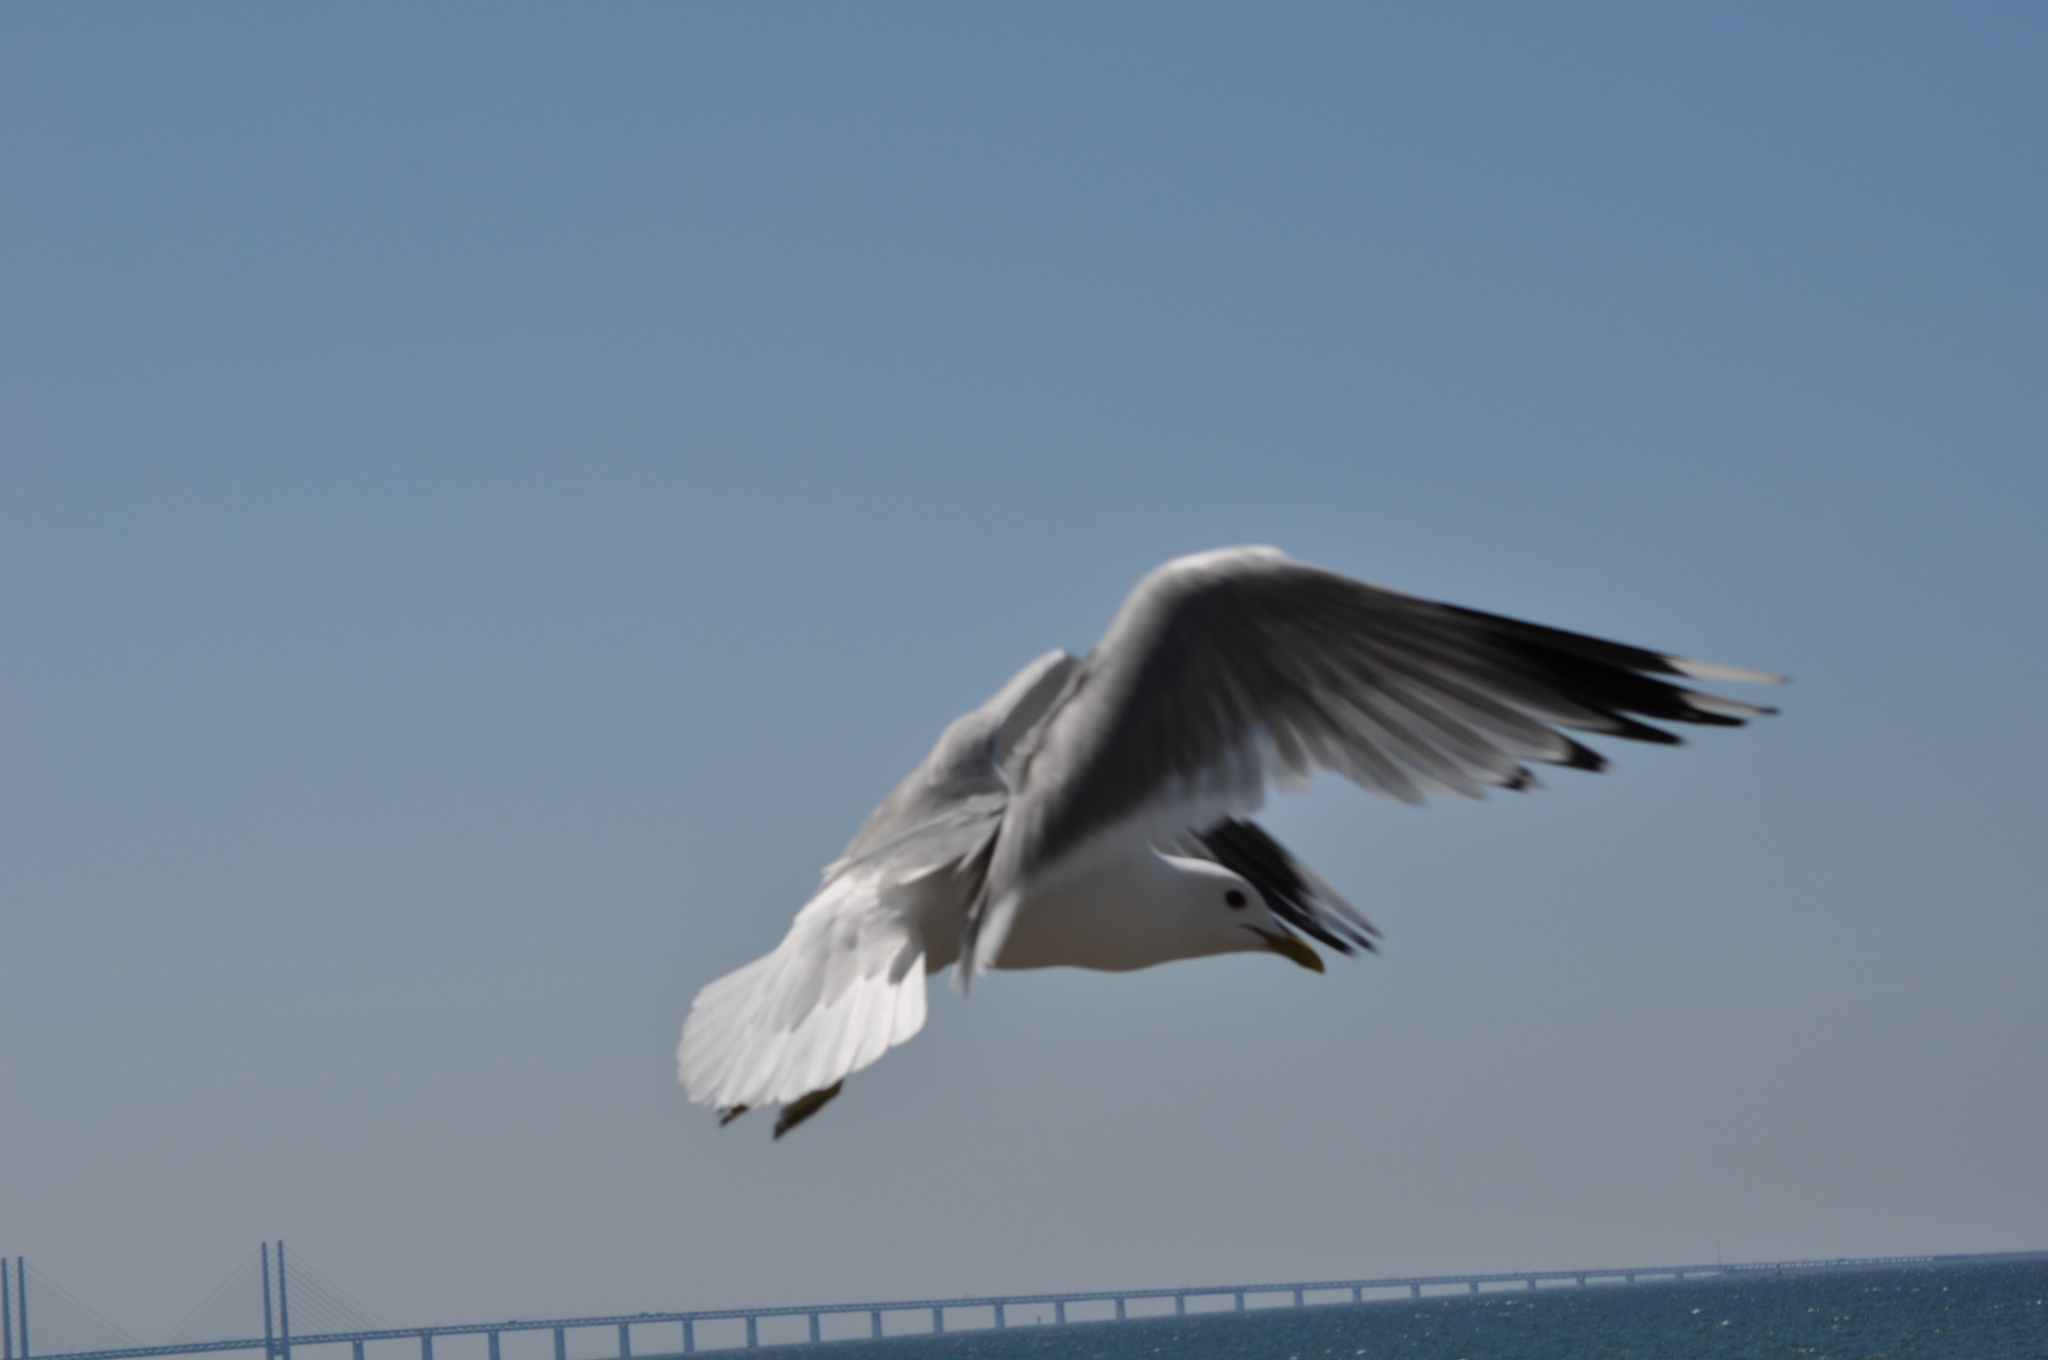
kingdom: Animalia
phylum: Chordata
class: Aves
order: Charadriiformes
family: Laridae
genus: Larus
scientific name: Larus canus
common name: Mew gull
